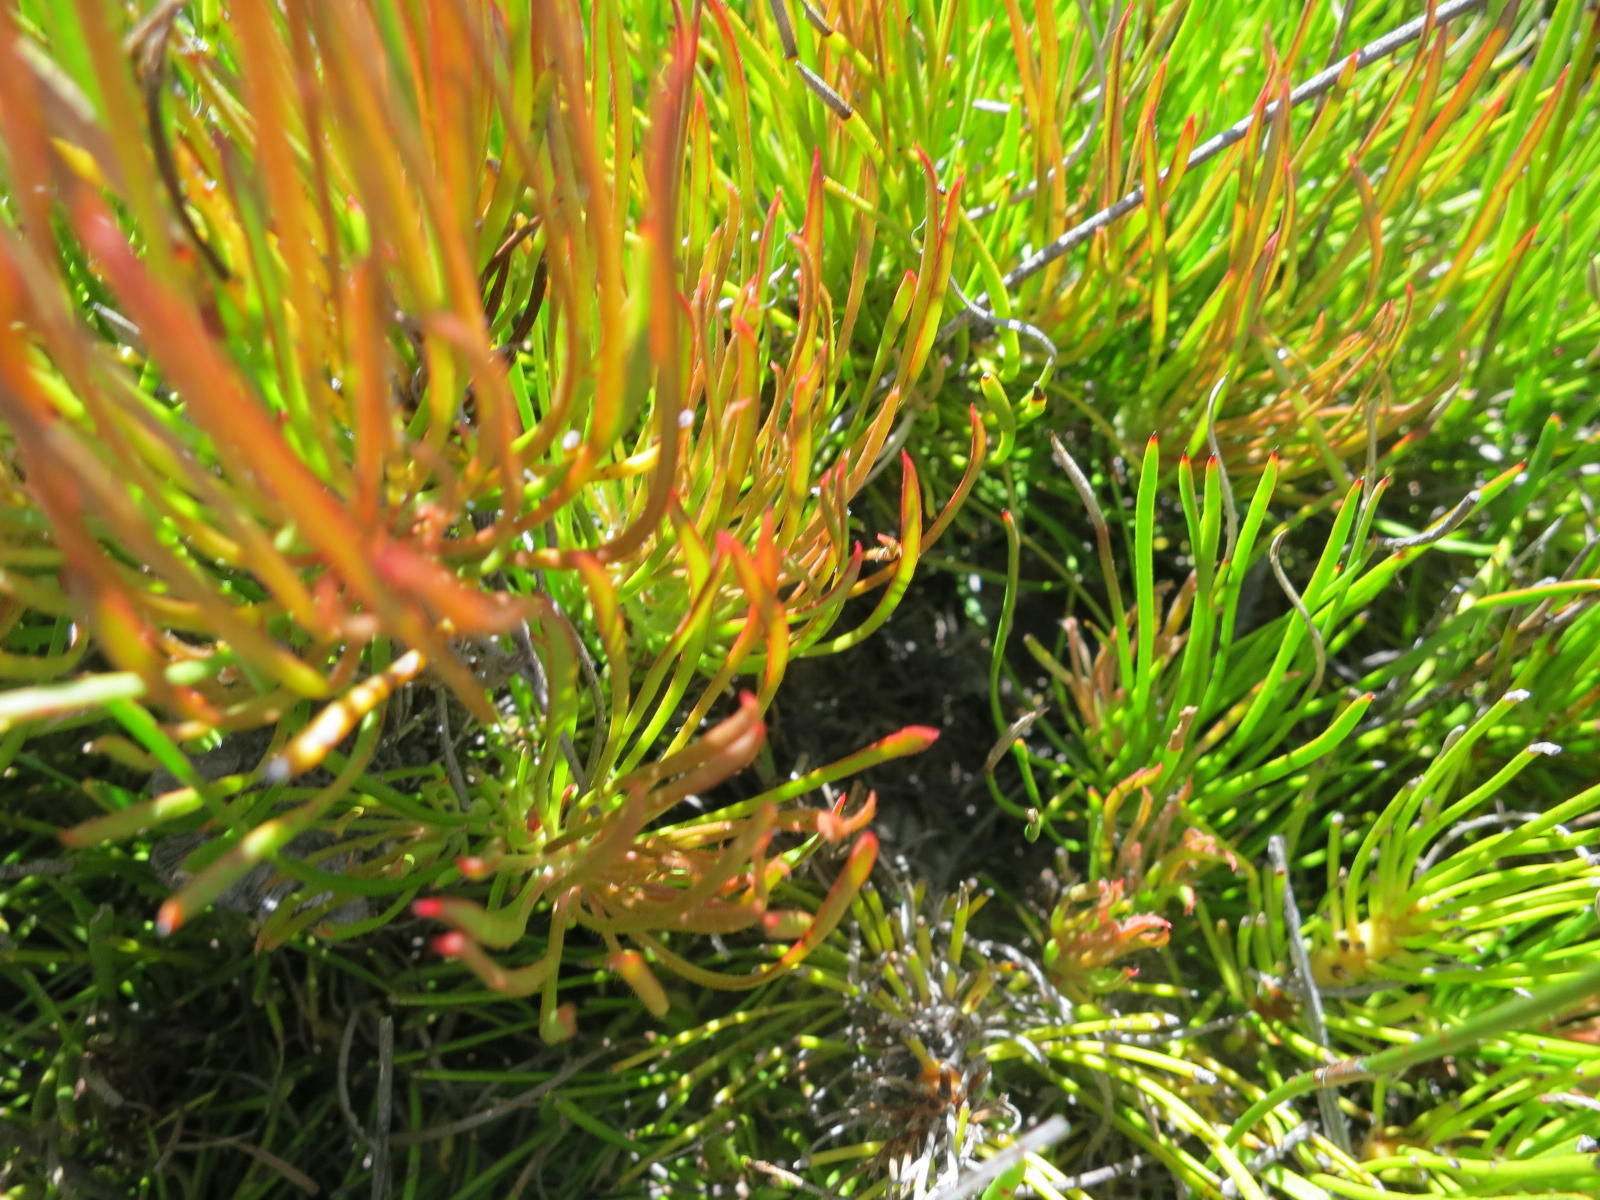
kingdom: Plantae
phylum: Tracheophyta
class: Magnoliopsida
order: Proteales
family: Proteaceae
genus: Protea
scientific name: Protea montana
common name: Swartberg sugarbush
